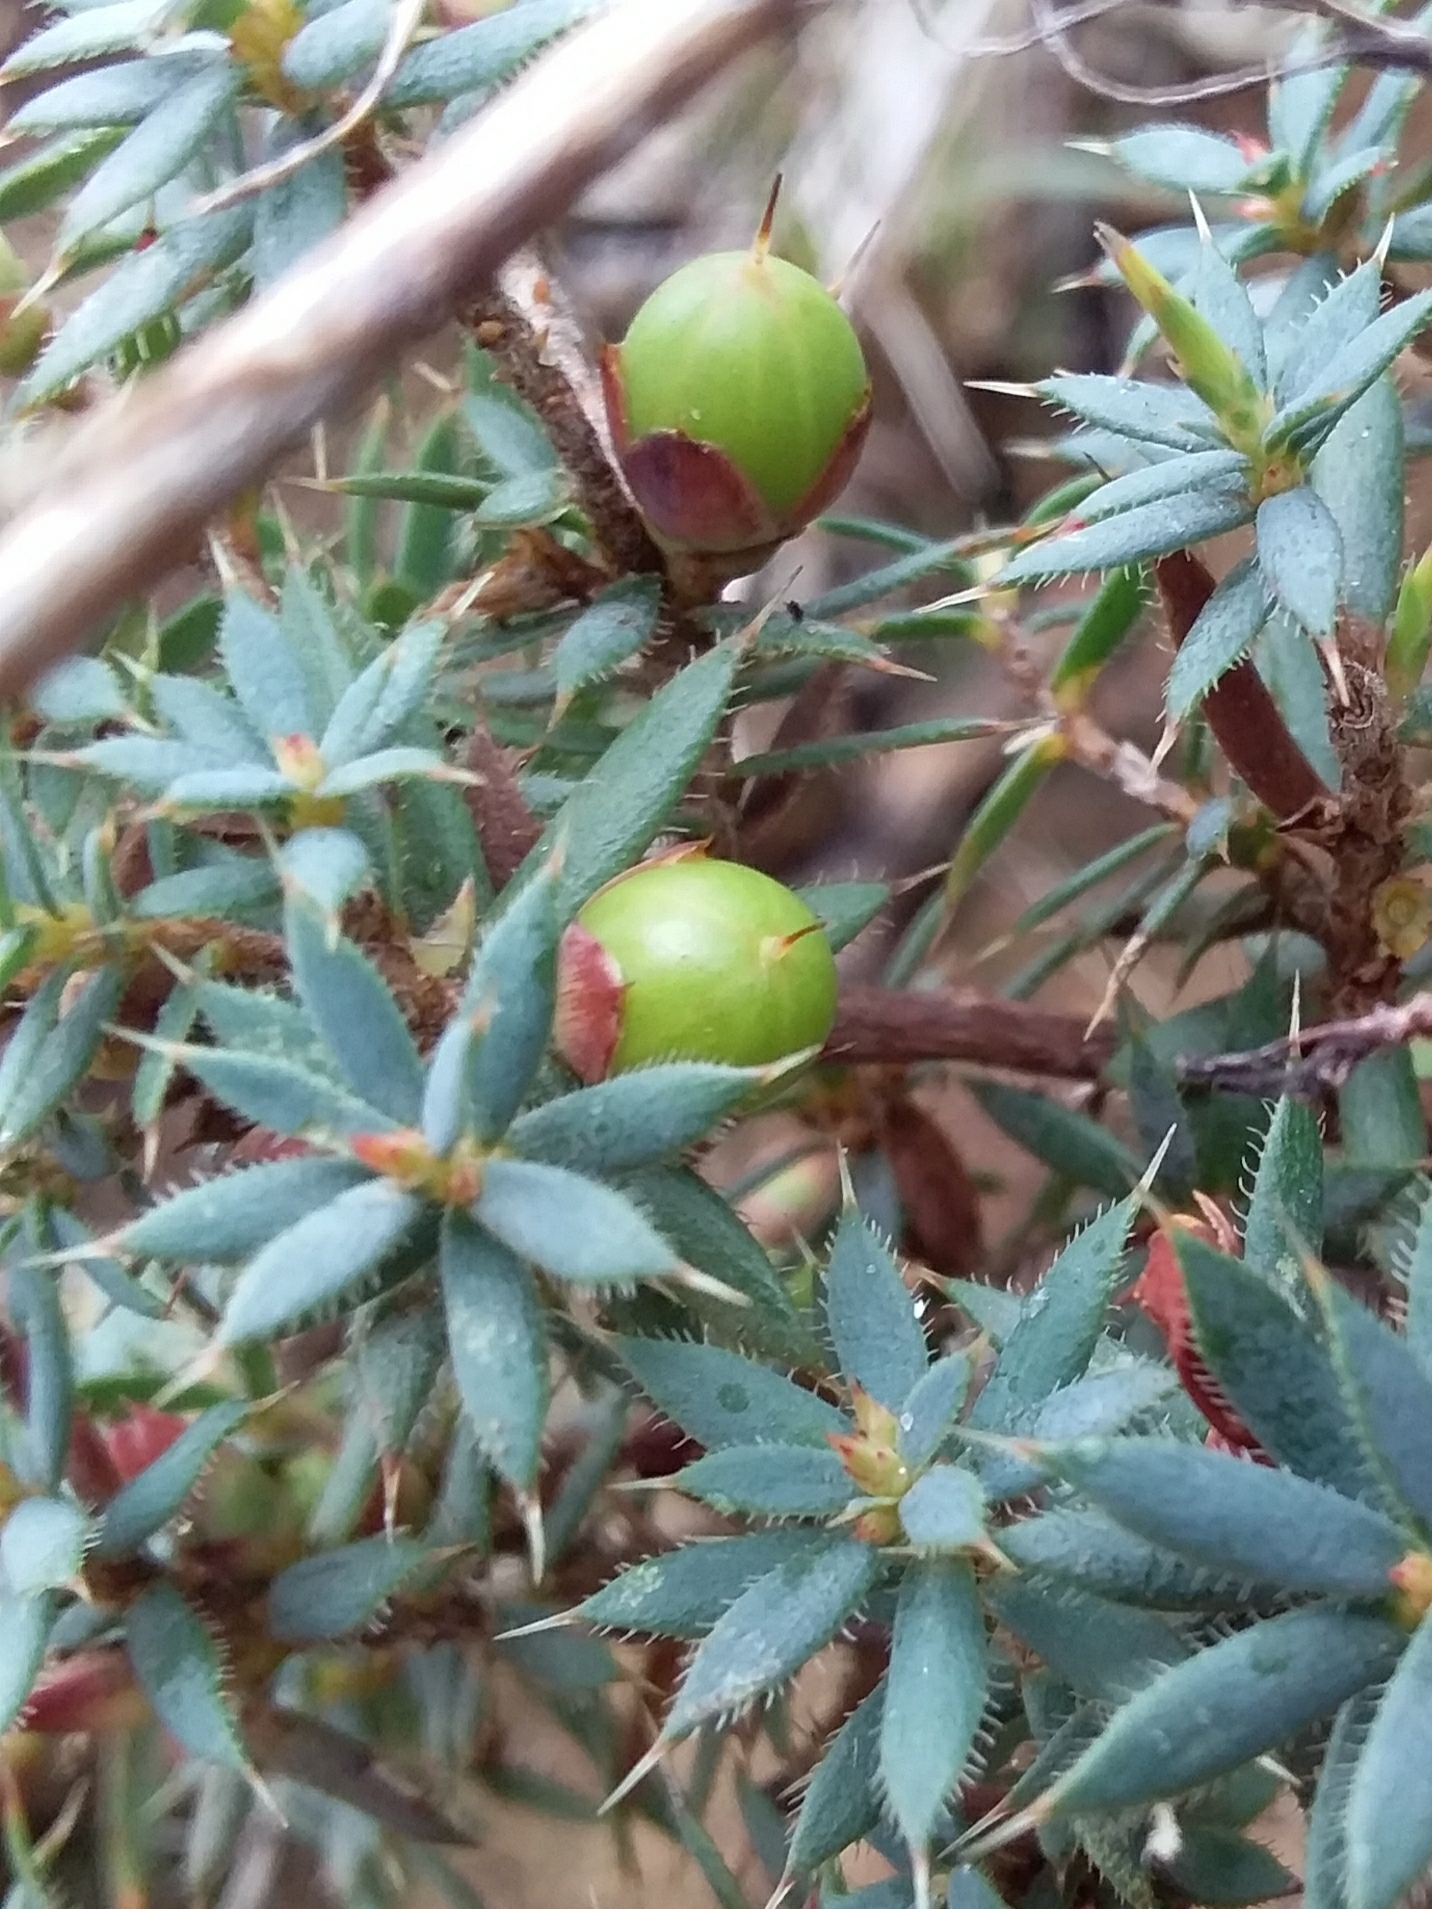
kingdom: Plantae
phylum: Tracheophyta
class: Magnoliopsida
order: Ericales
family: Ericaceae
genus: Styphelia
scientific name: Styphelia humifusa
